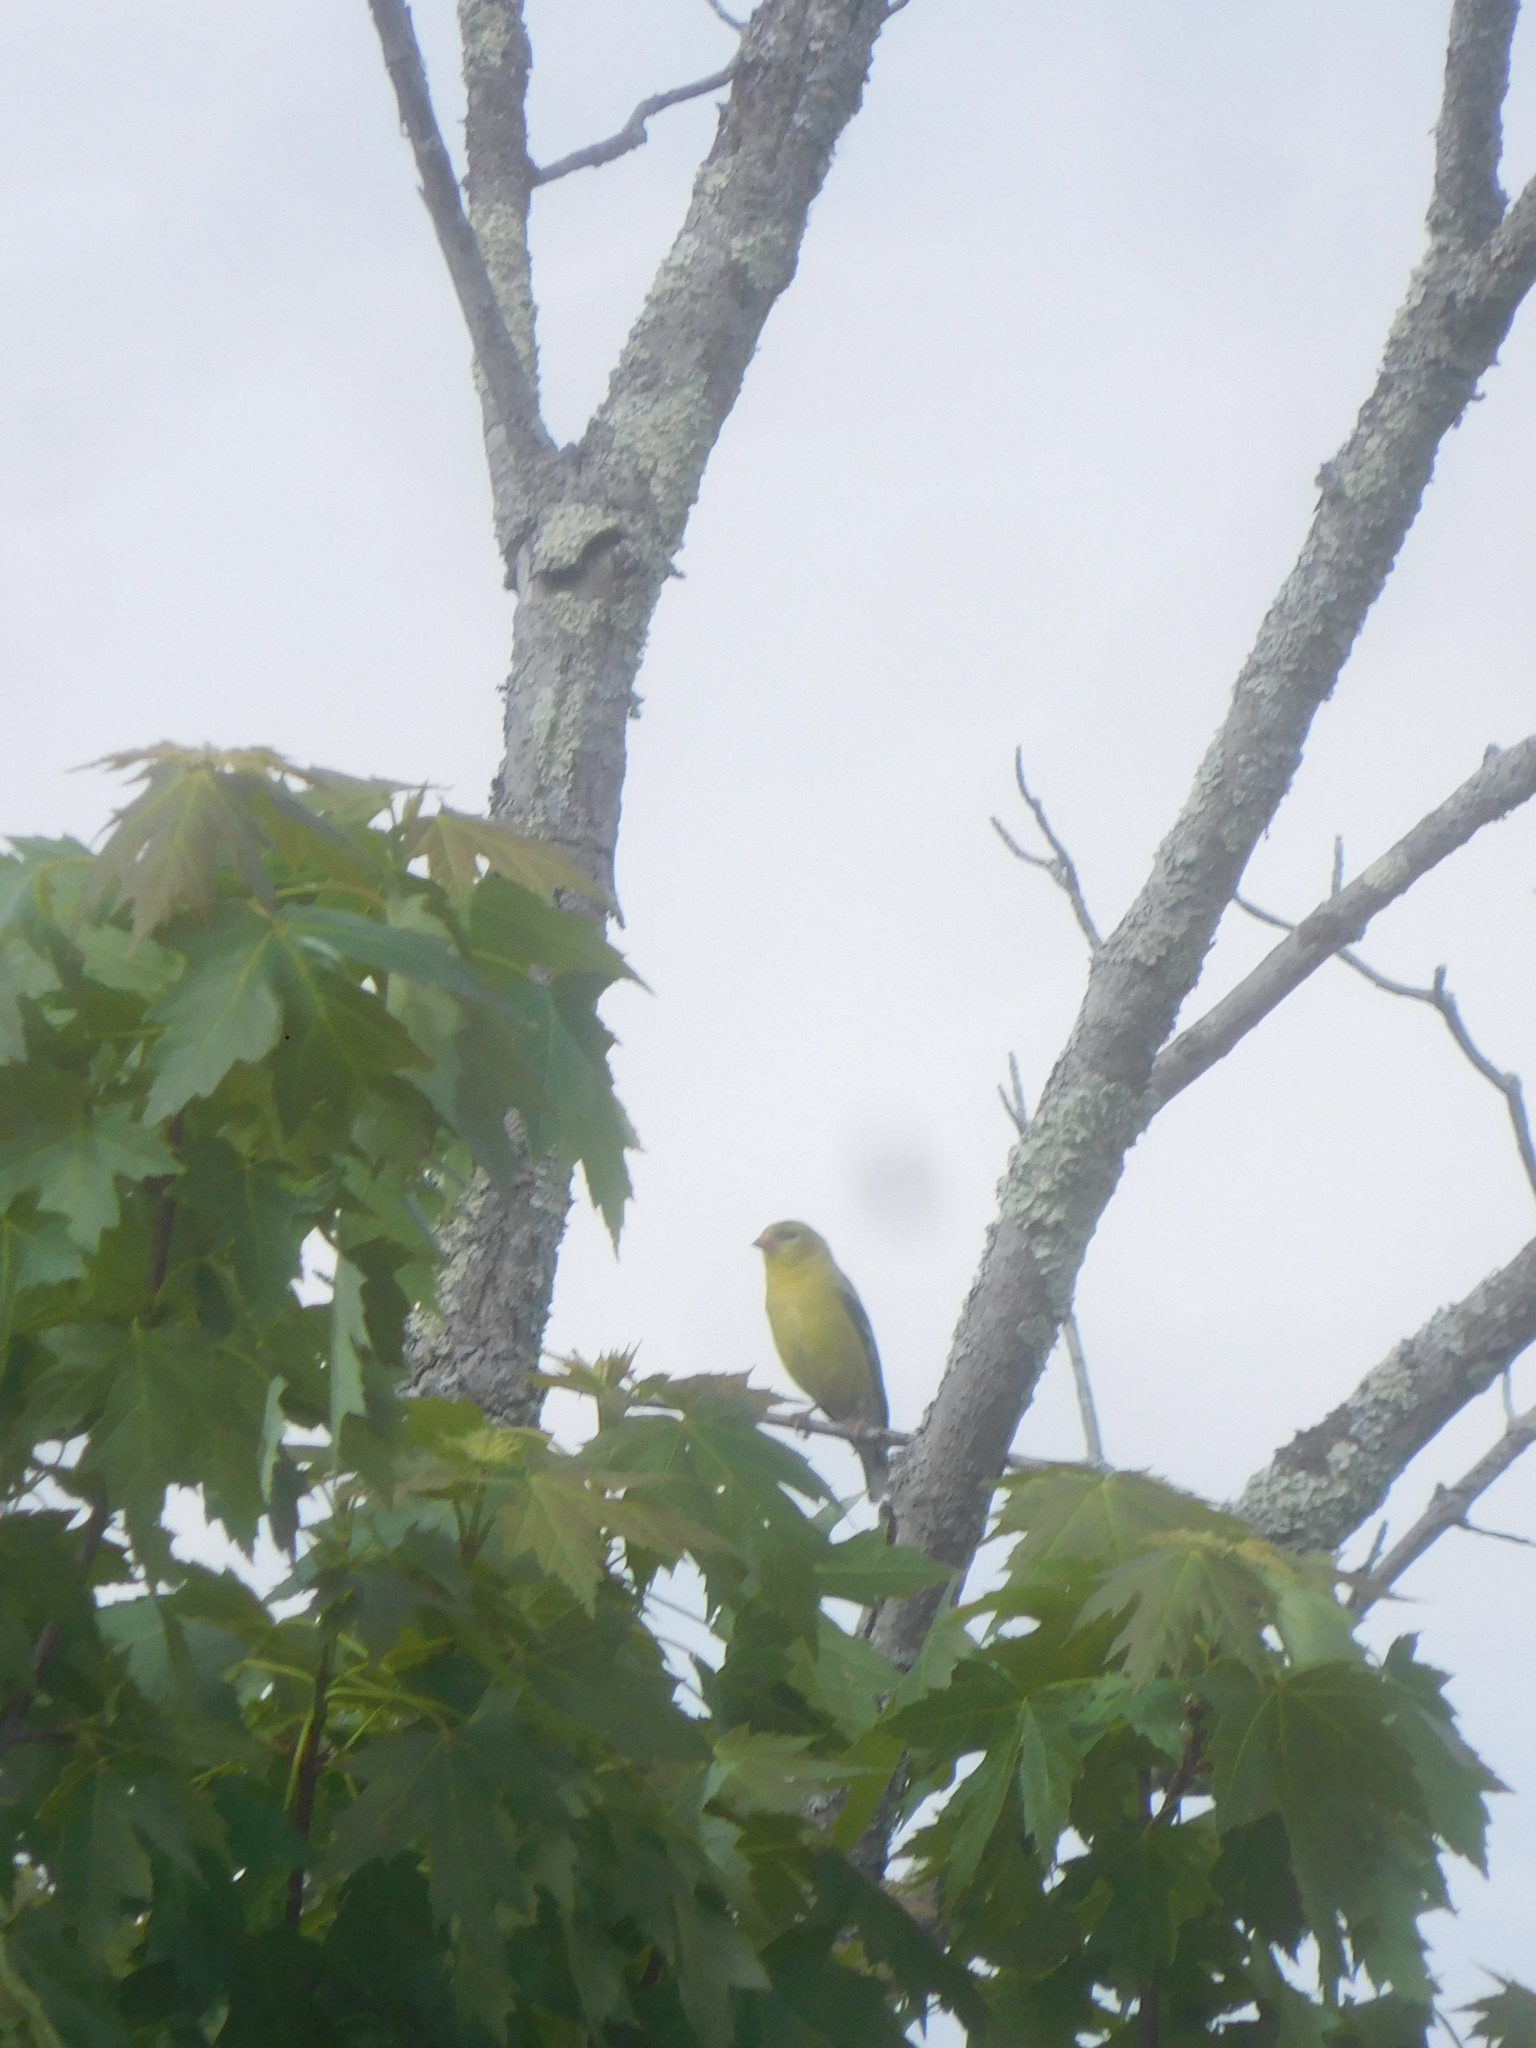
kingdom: Animalia
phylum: Chordata
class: Aves
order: Passeriformes
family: Cardinalidae
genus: Piranga
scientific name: Piranga olivacea
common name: Scarlet tanager
